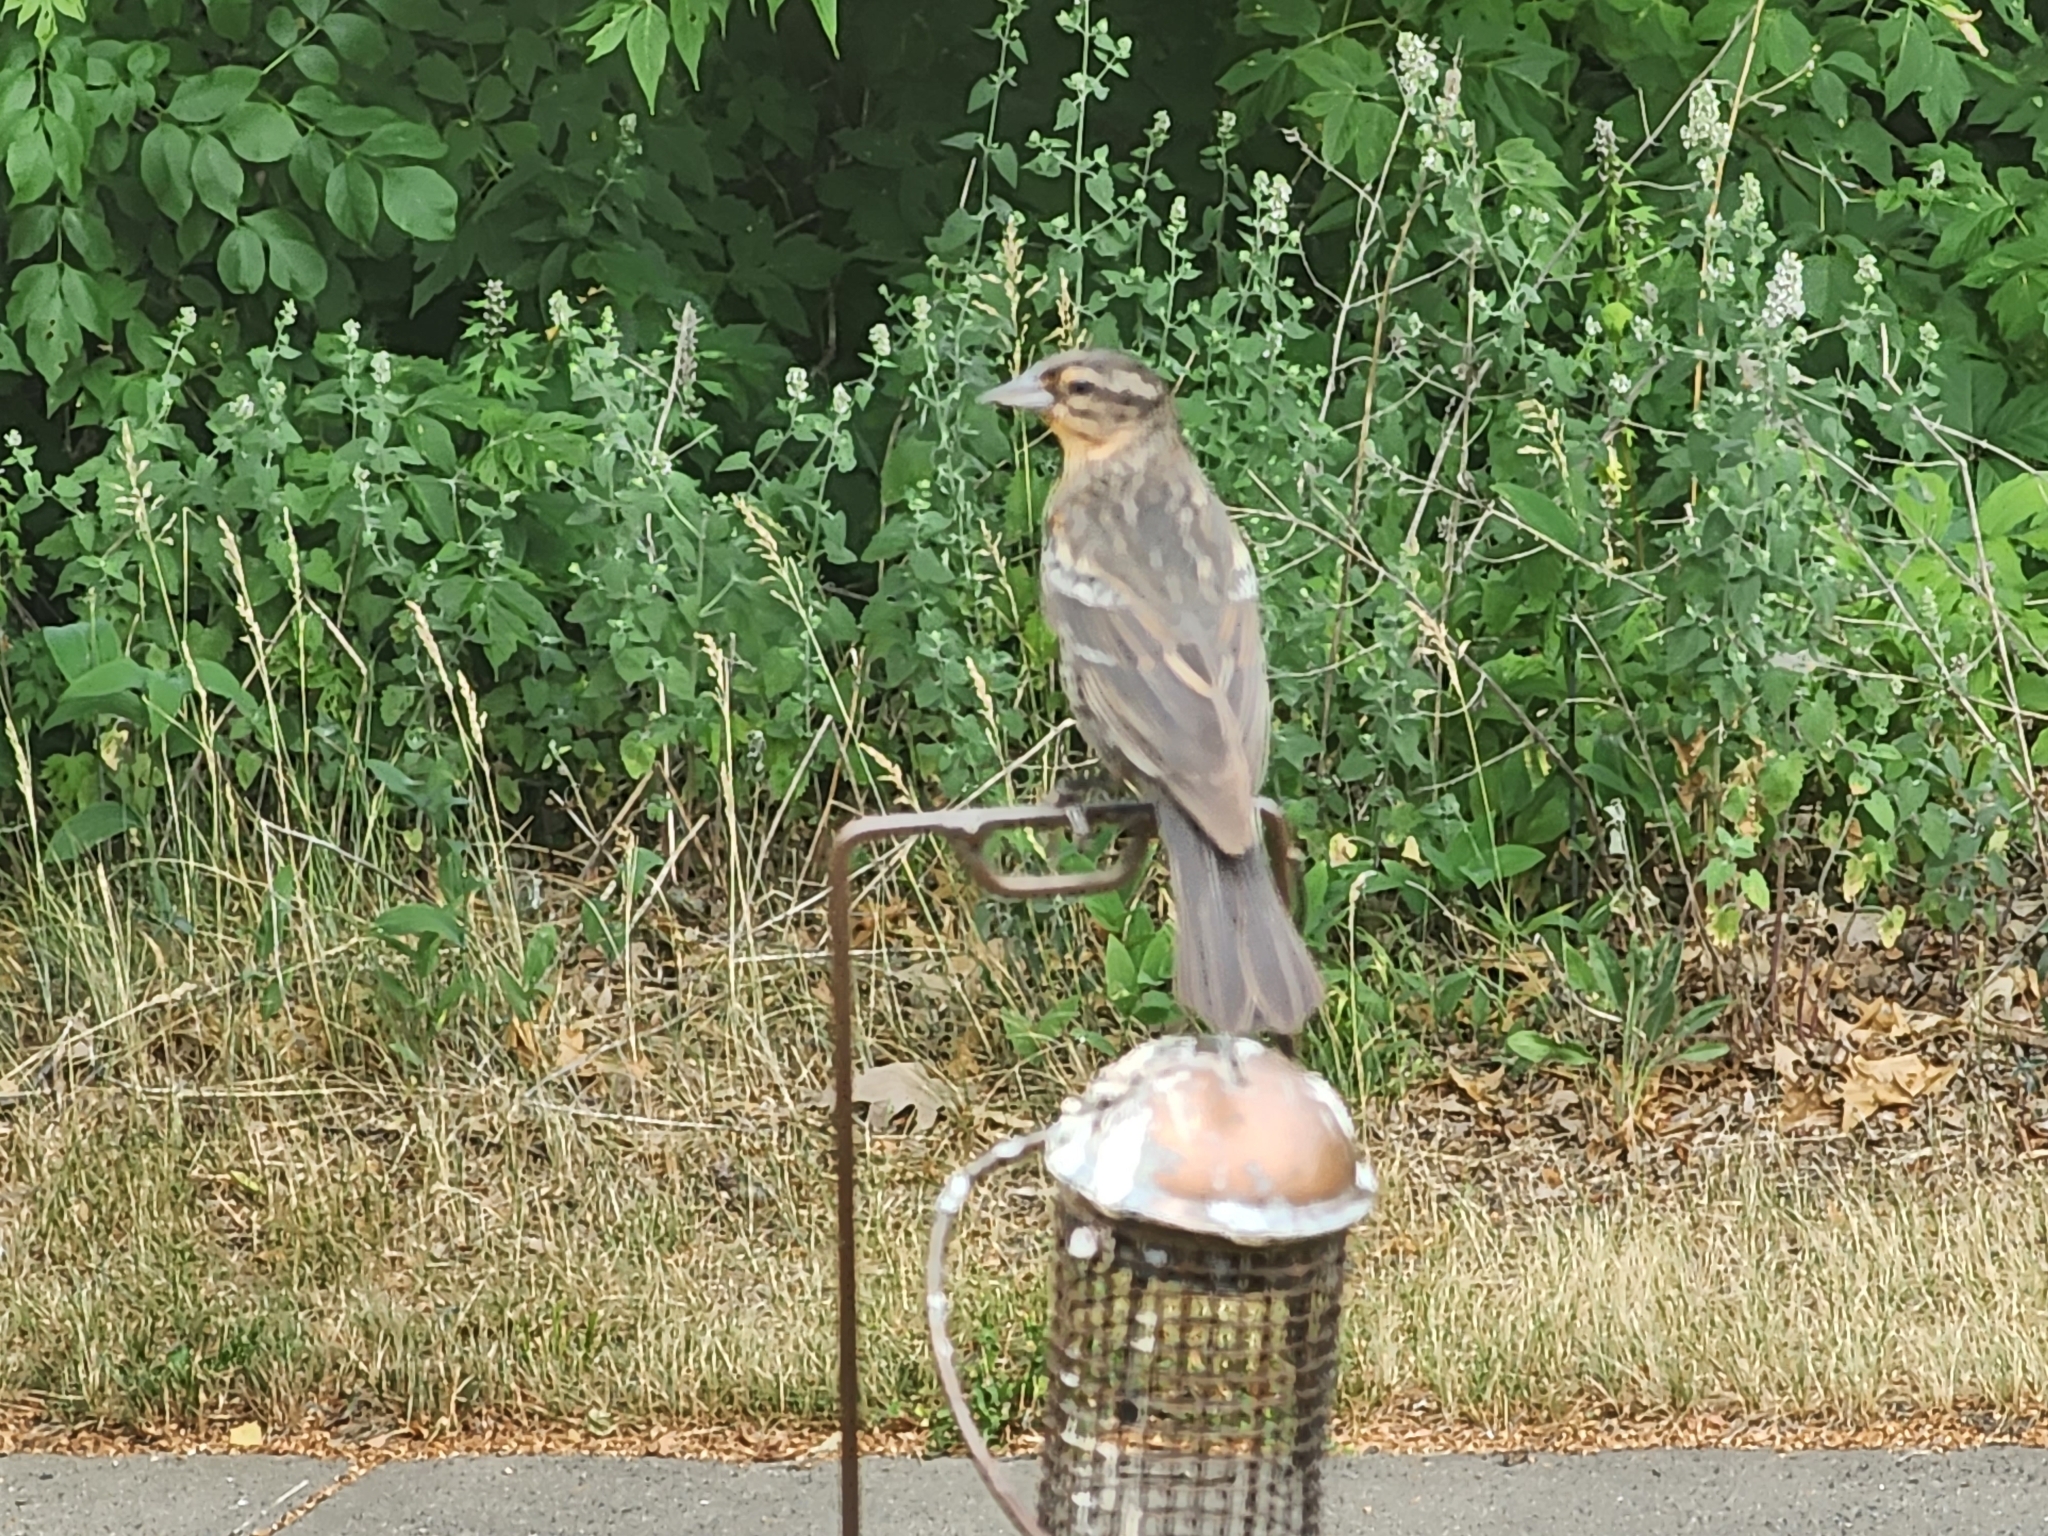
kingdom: Animalia
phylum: Chordata
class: Aves
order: Passeriformes
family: Icteridae
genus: Agelaius
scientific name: Agelaius phoeniceus
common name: Red-winged blackbird
